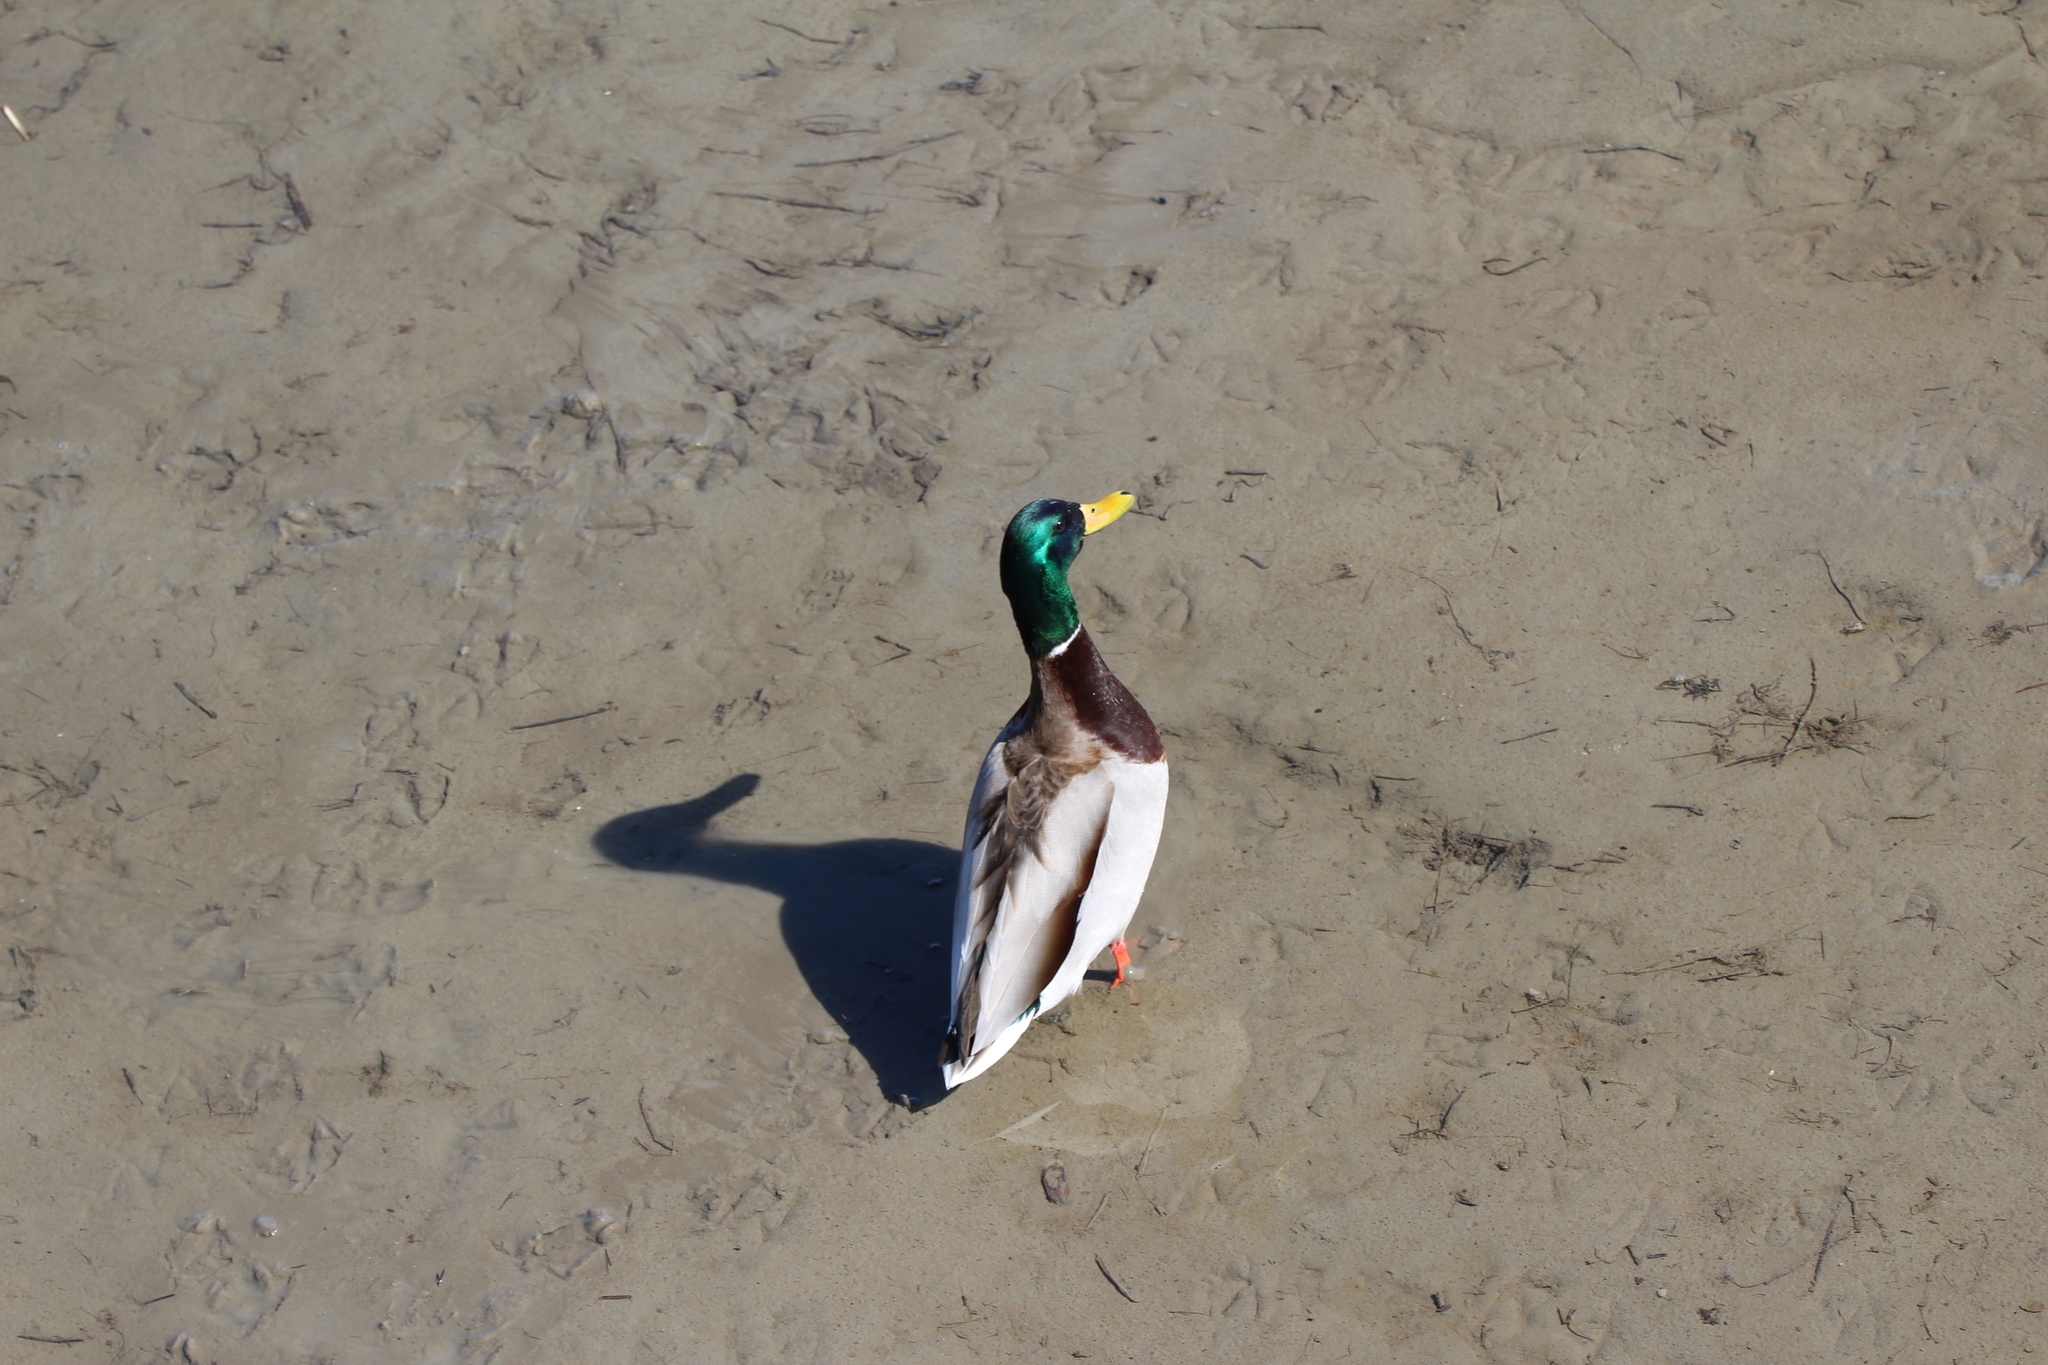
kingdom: Animalia
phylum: Chordata
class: Aves
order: Anseriformes
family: Anatidae
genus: Anas
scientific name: Anas platyrhynchos
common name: Mallard
